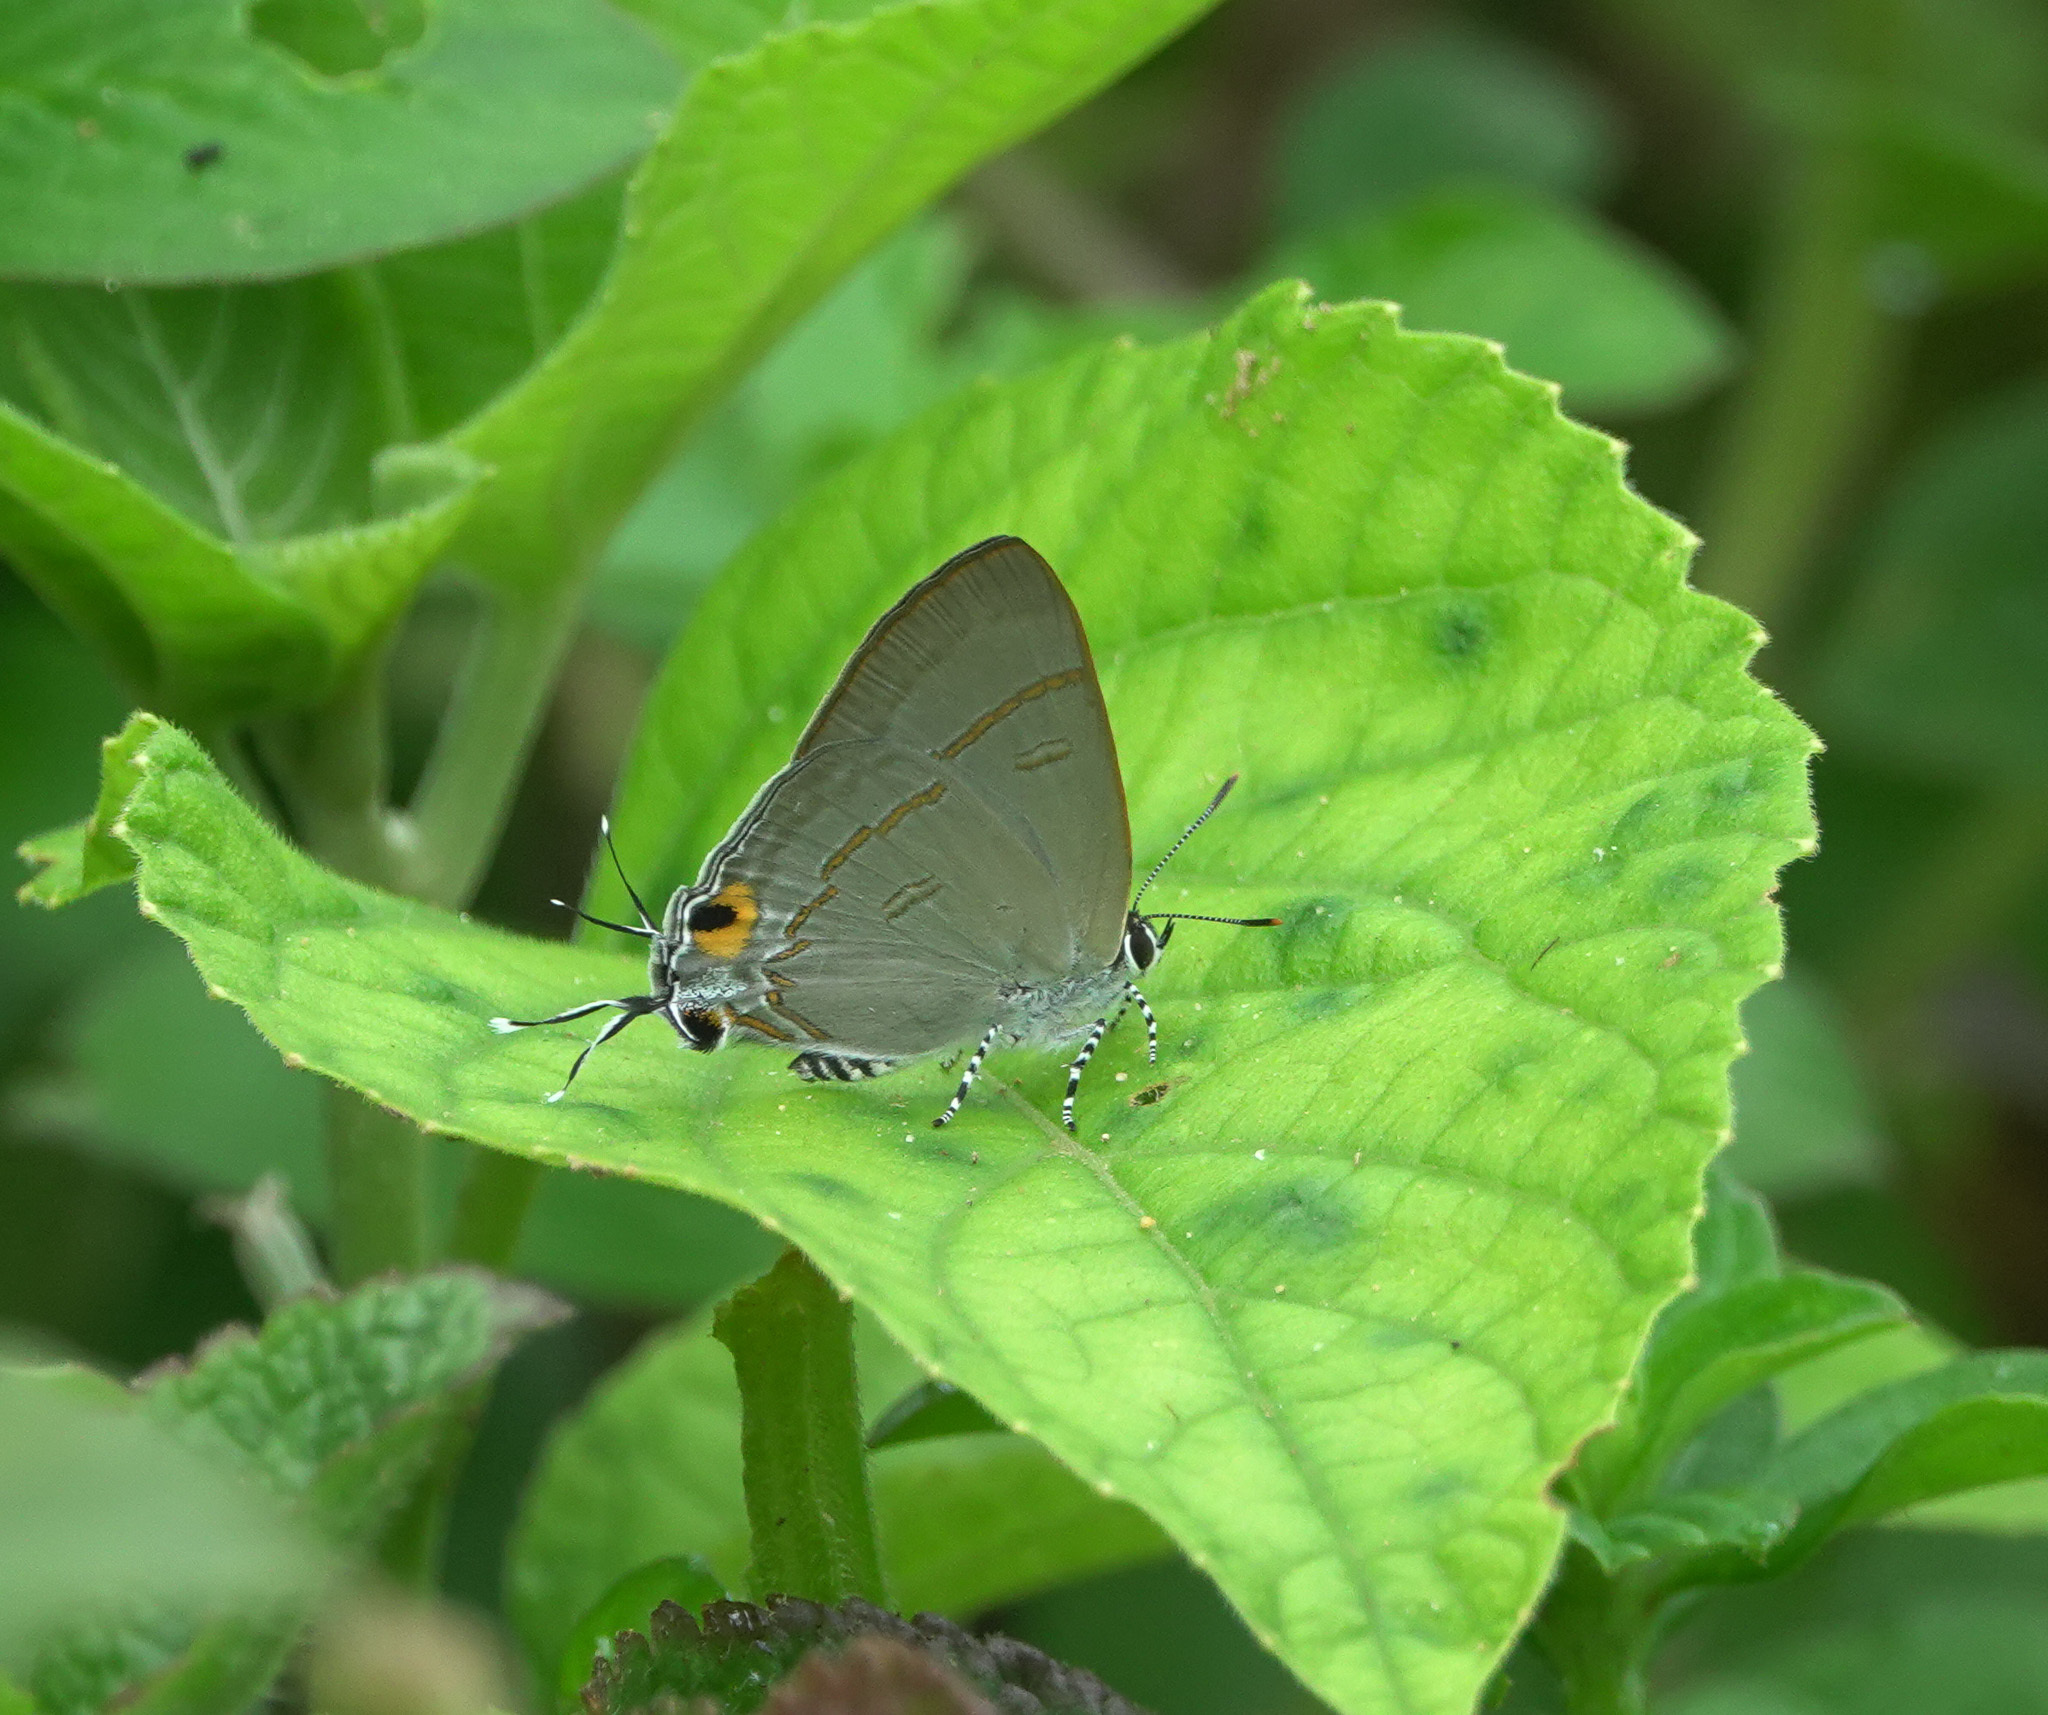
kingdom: Animalia
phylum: Arthropoda
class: Insecta
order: Lepidoptera
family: Lycaenidae
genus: Hypolycaena
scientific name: Hypolycaena erylus
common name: Common tit
